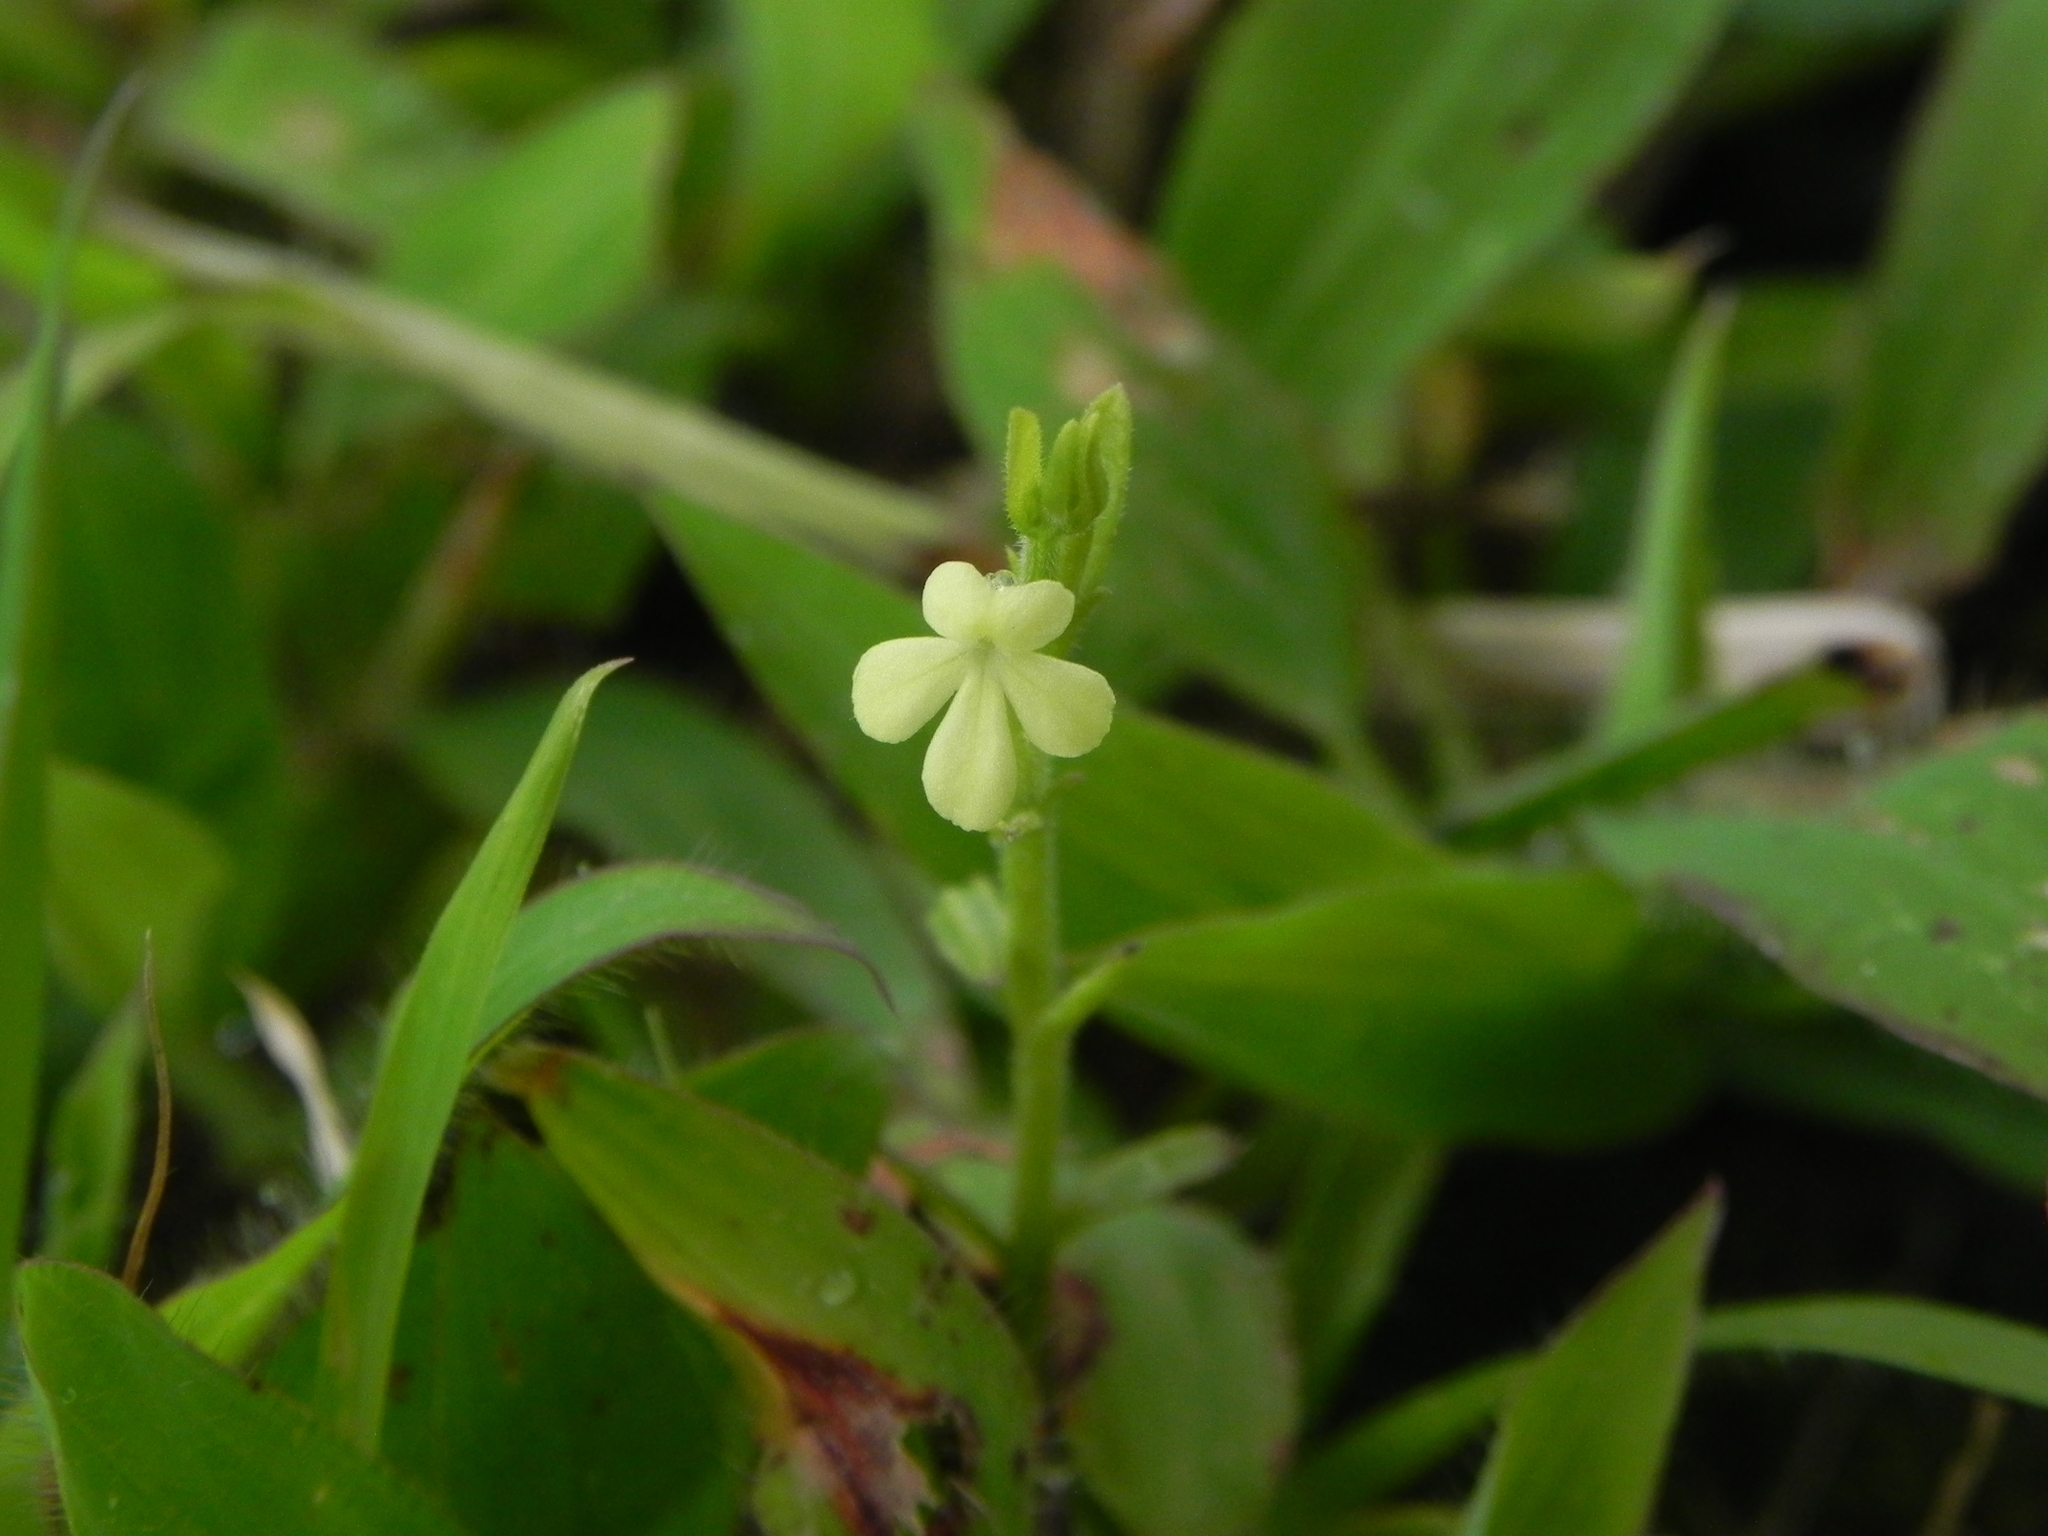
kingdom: Plantae
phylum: Tracheophyta
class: Magnoliopsida
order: Lamiales
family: Orobanchaceae
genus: Striga
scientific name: Striga asiatica
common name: Asiatic witchweed
